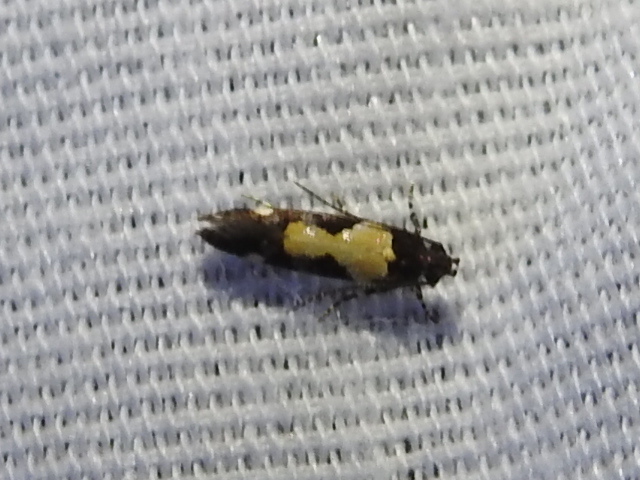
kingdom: Animalia
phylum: Arthropoda
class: Insecta
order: Lepidoptera
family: Gelechiidae
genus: Stegasta
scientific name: Stegasta bosqueella
